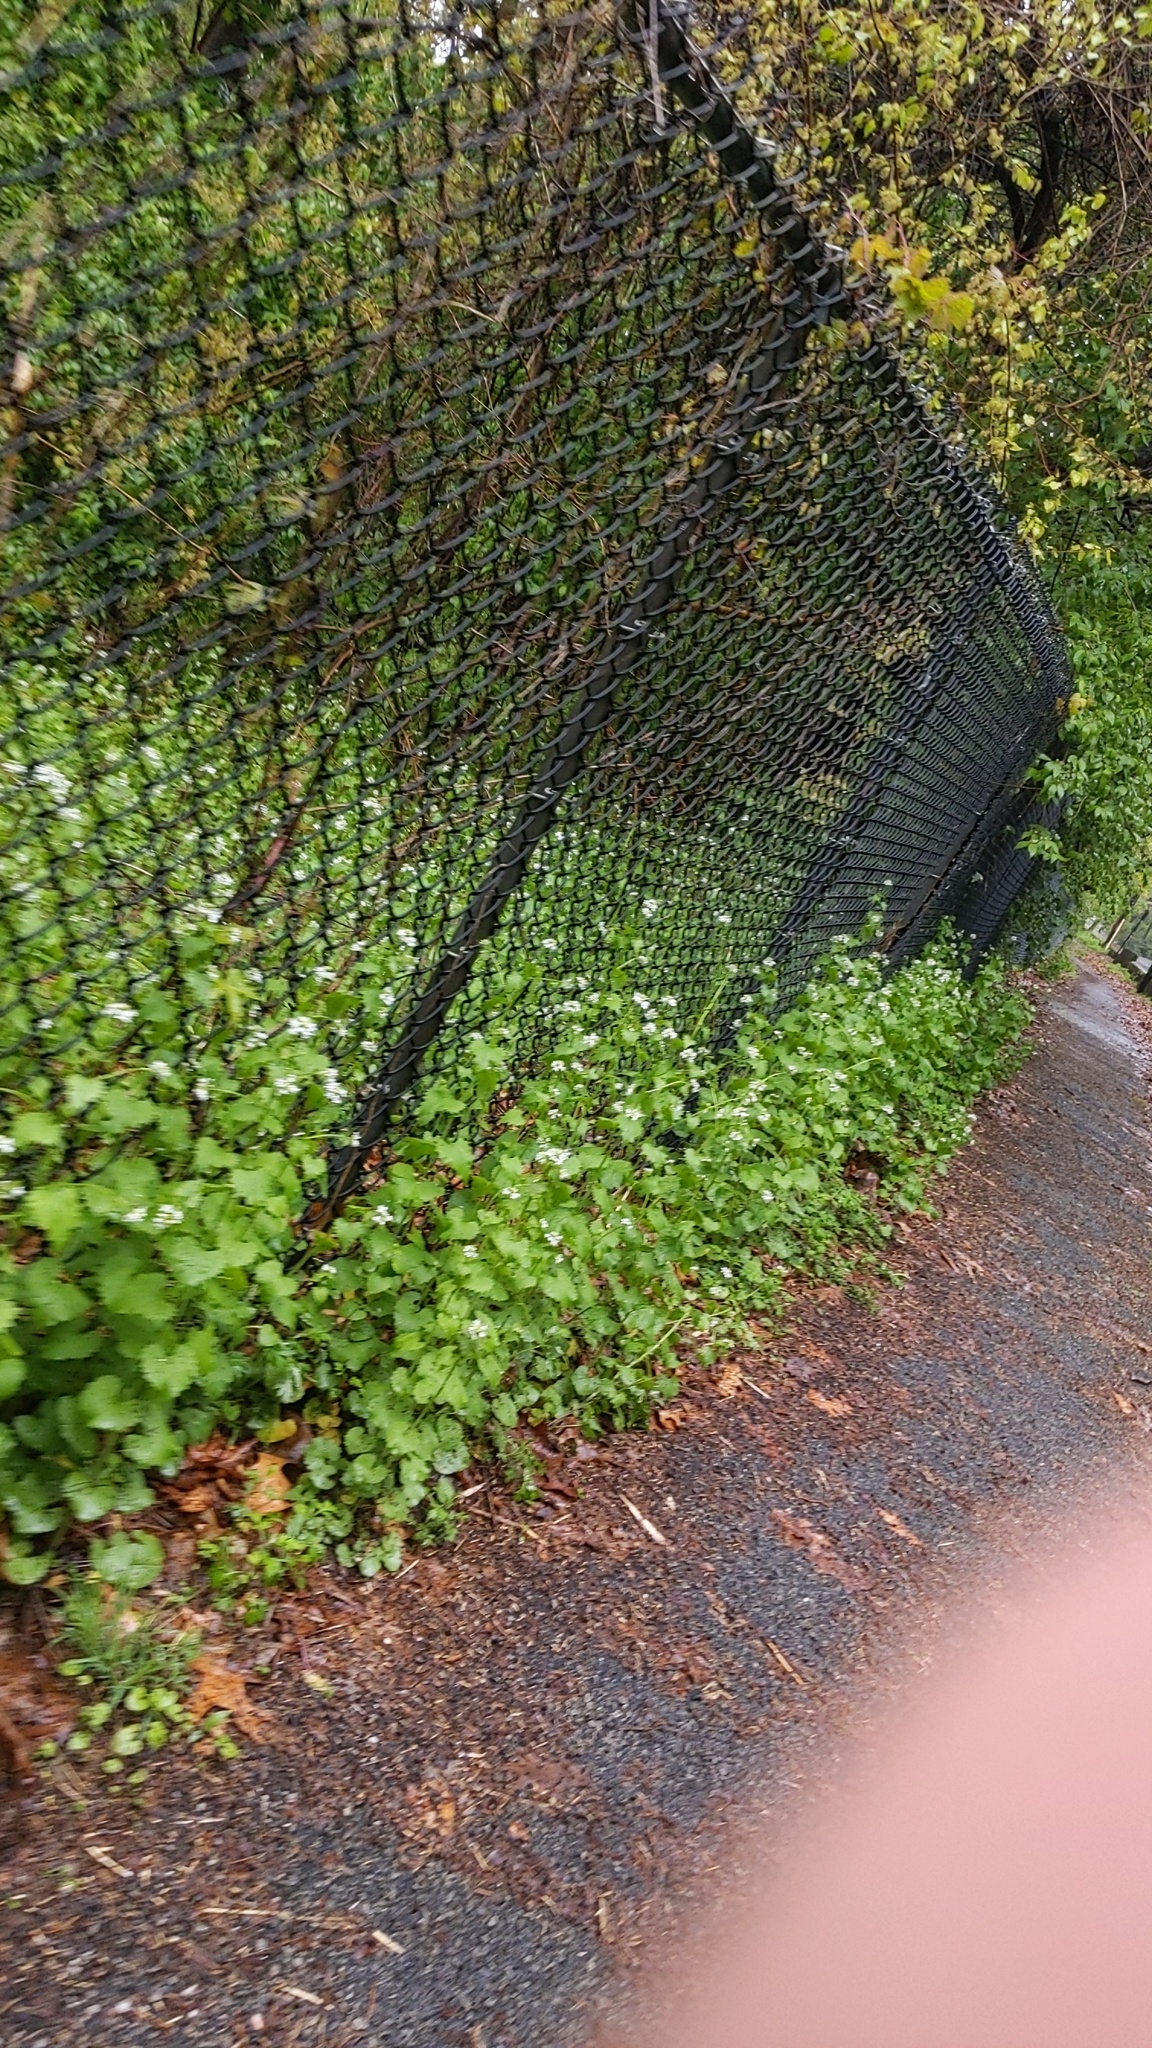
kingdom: Plantae
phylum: Tracheophyta
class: Magnoliopsida
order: Brassicales
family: Brassicaceae
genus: Alliaria
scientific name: Alliaria petiolata
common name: Garlic mustard
